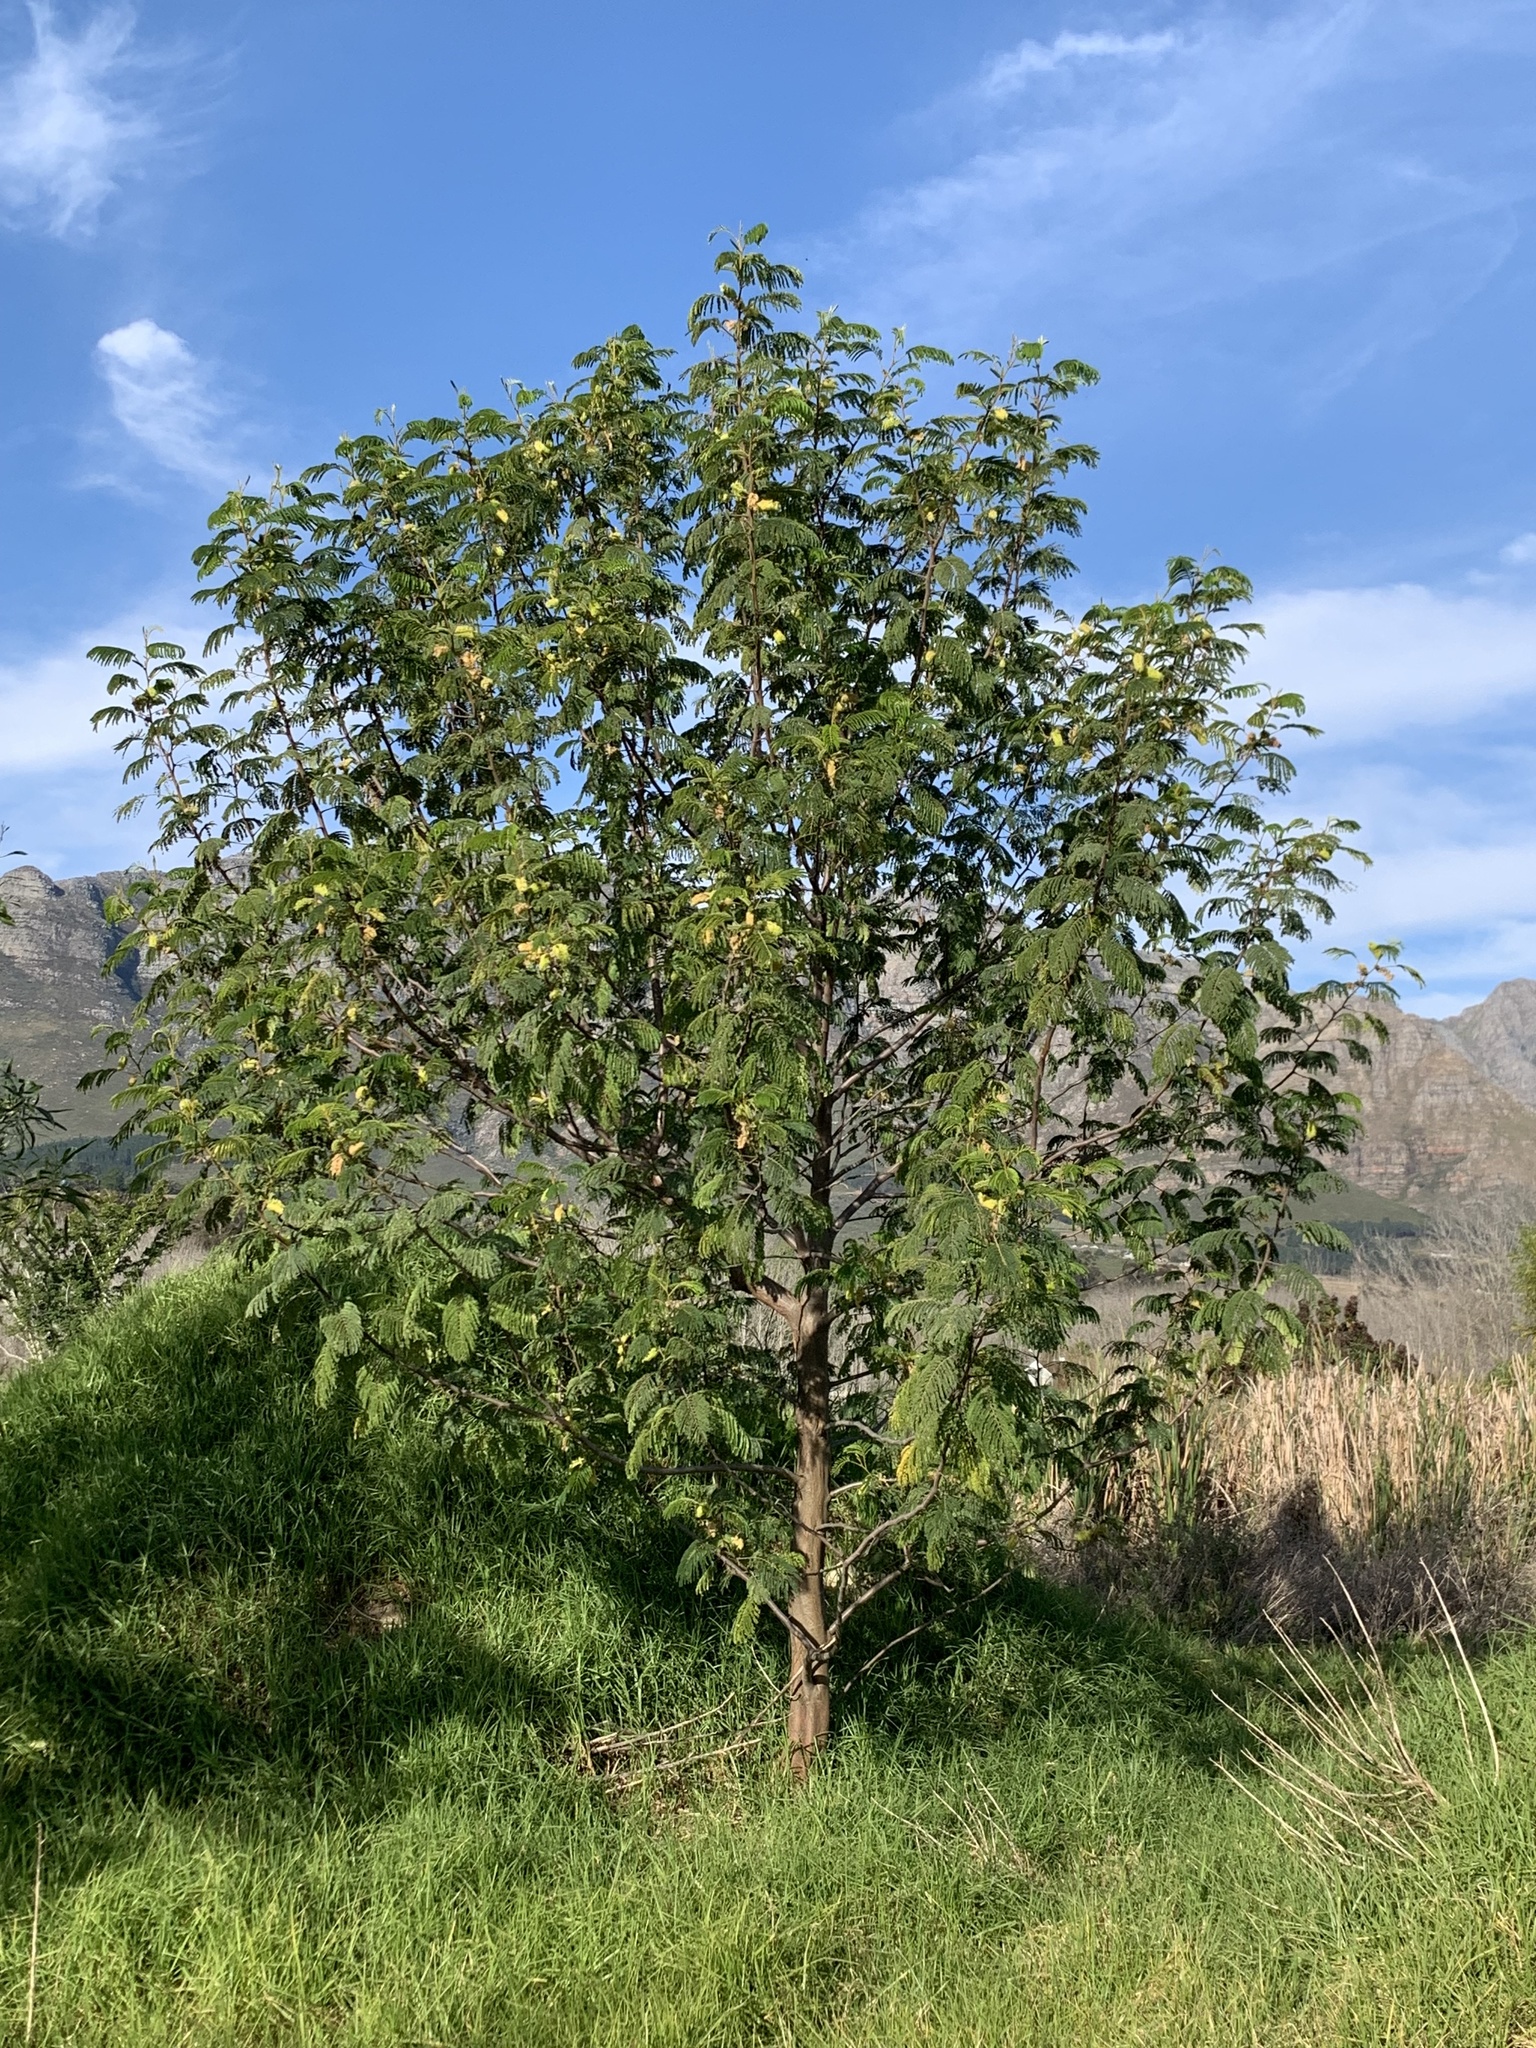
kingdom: Plantae
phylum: Tracheophyta
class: Magnoliopsida
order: Fabales
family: Fabaceae
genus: Paraserianthes
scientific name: Paraserianthes lophantha
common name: Plume albizia
